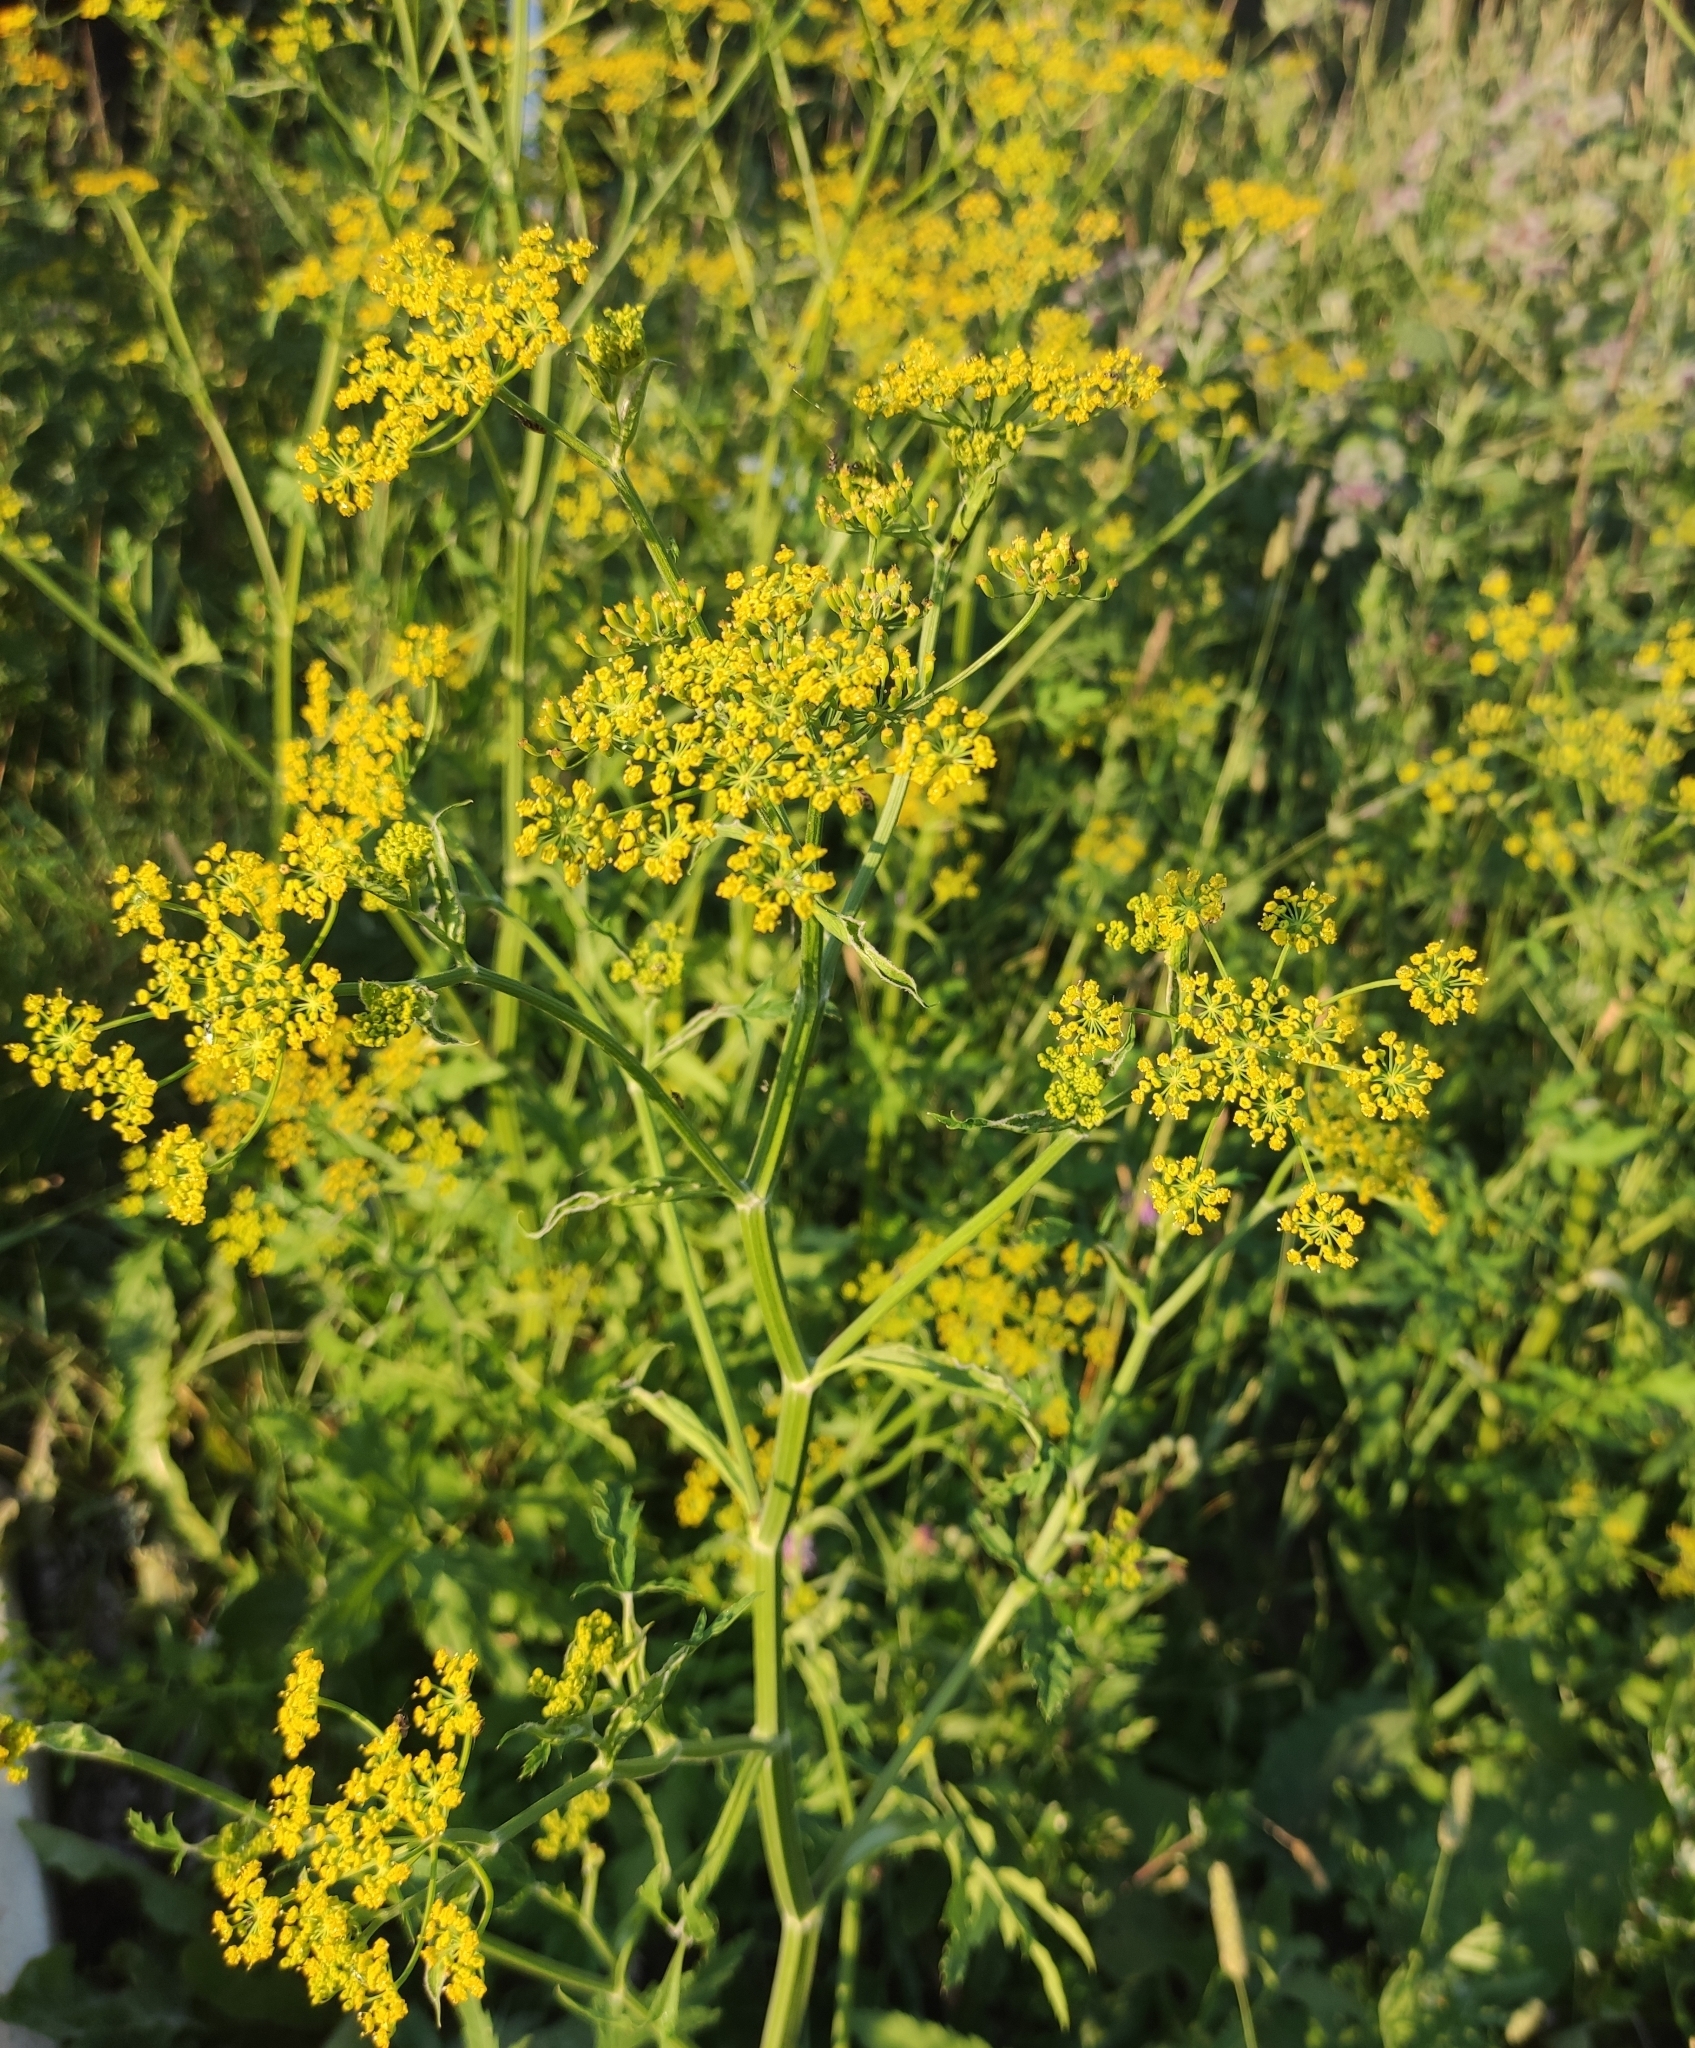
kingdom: Plantae
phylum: Tracheophyta
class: Magnoliopsida
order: Apiales
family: Apiaceae
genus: Pastinaca
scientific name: Pastinaca sativa
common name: Wild parsnip
